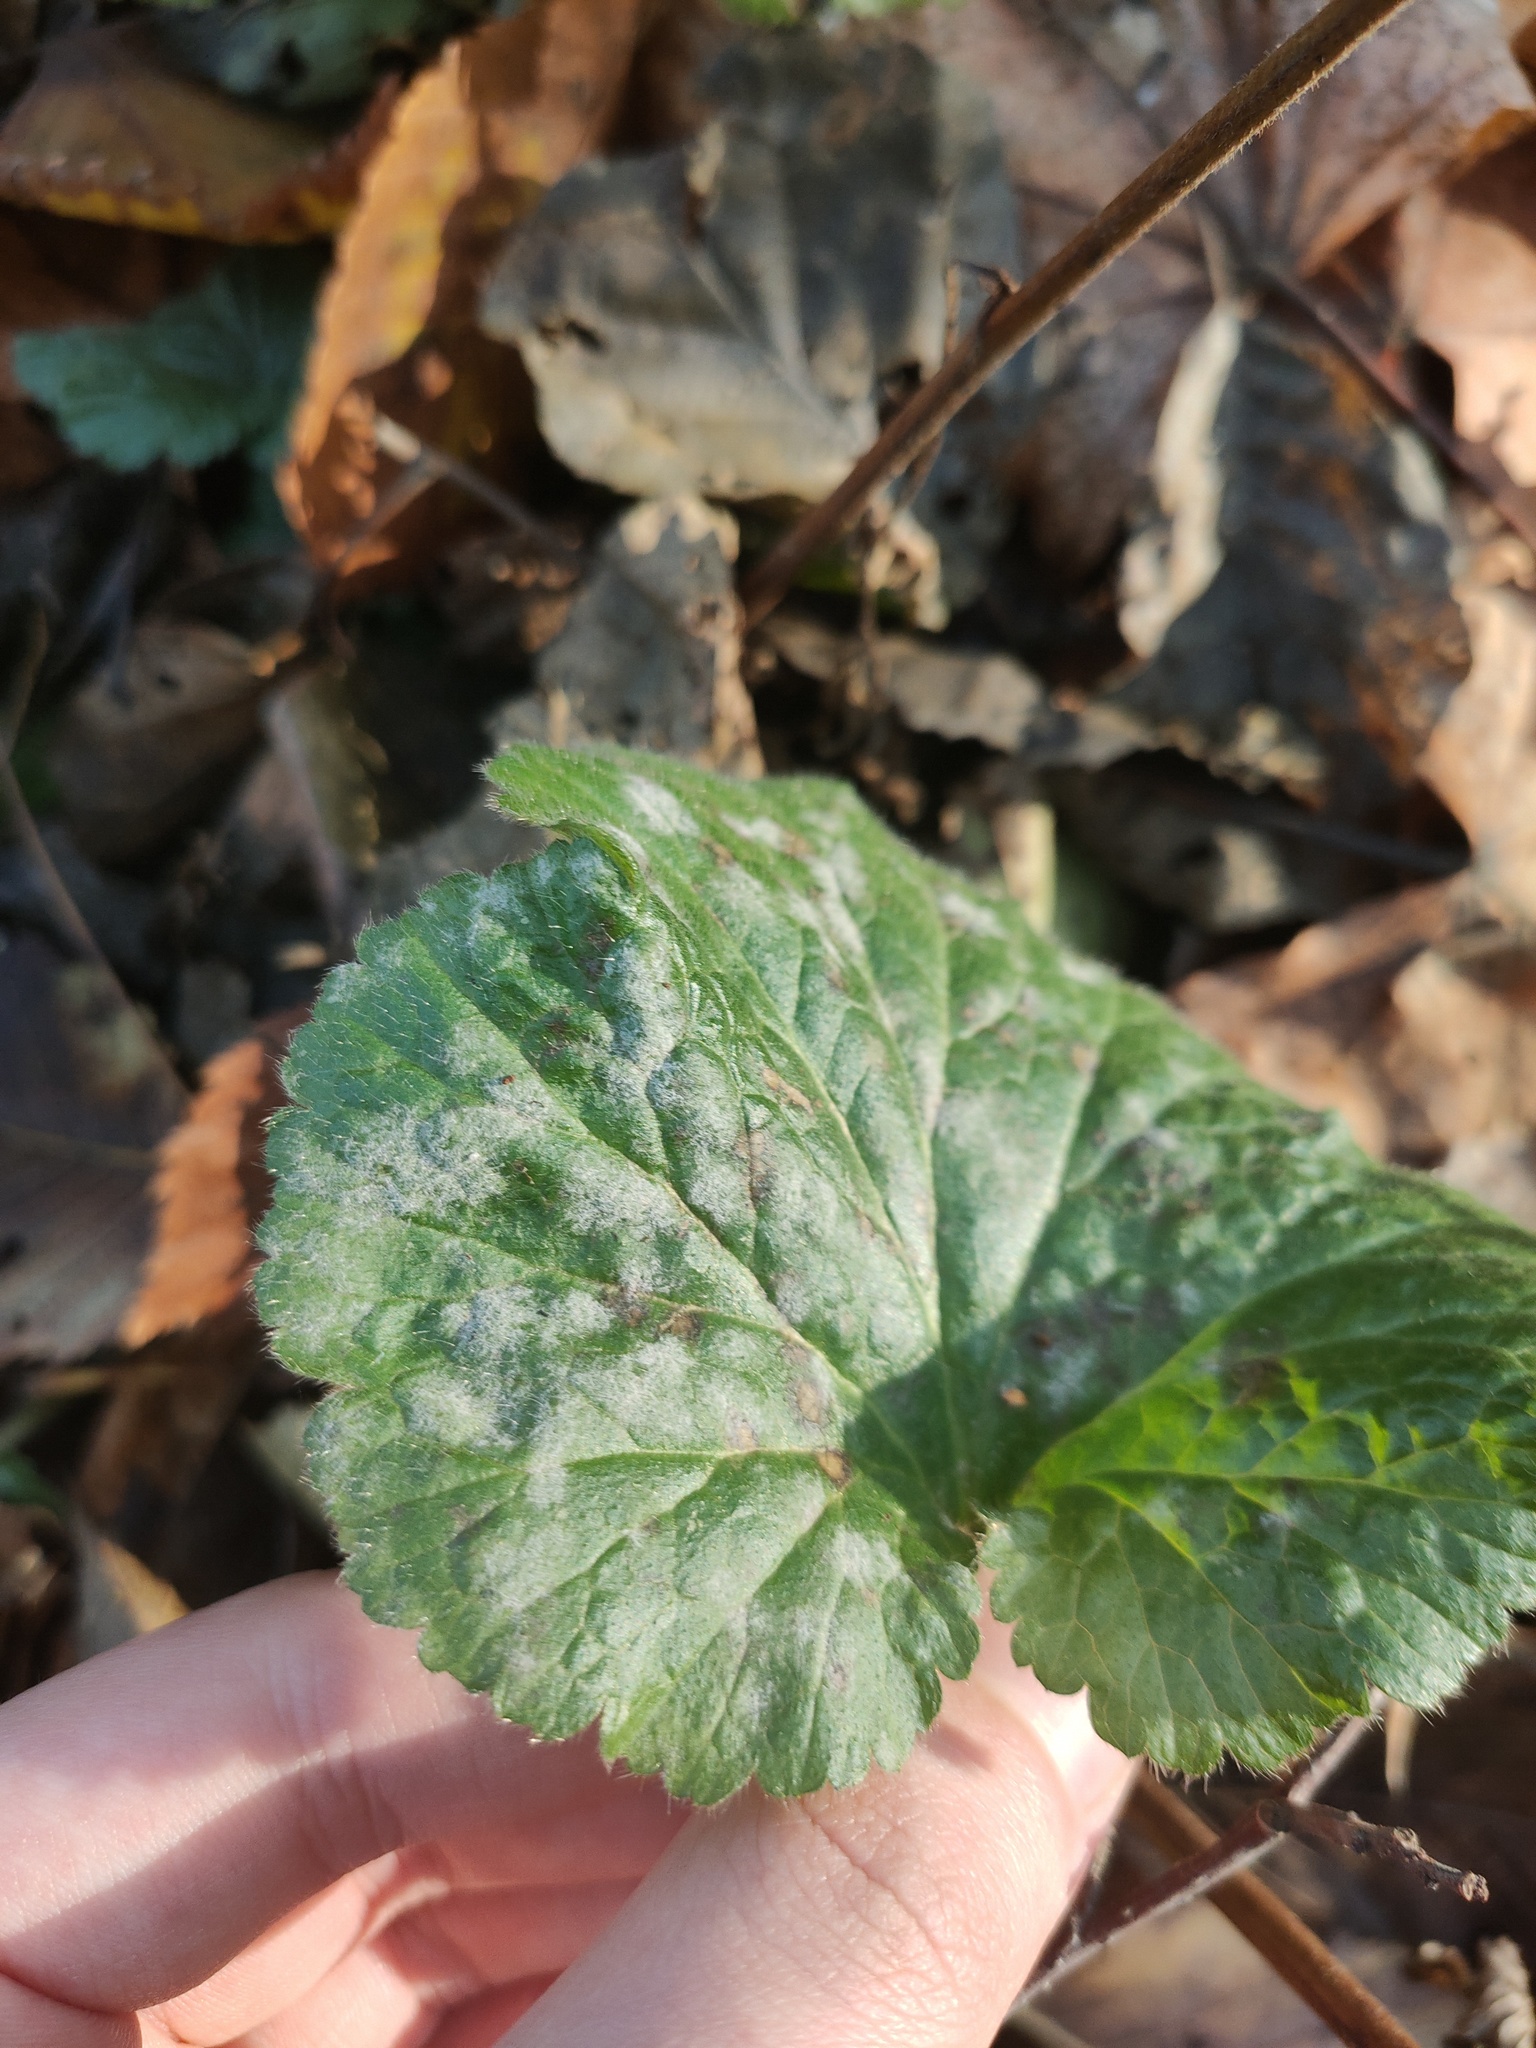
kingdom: Fungi
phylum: Ascomycota
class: Leotiomycetes
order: Helotiales
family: Erysiphaceae
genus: Podosphaera
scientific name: Podosphaera aphanis
